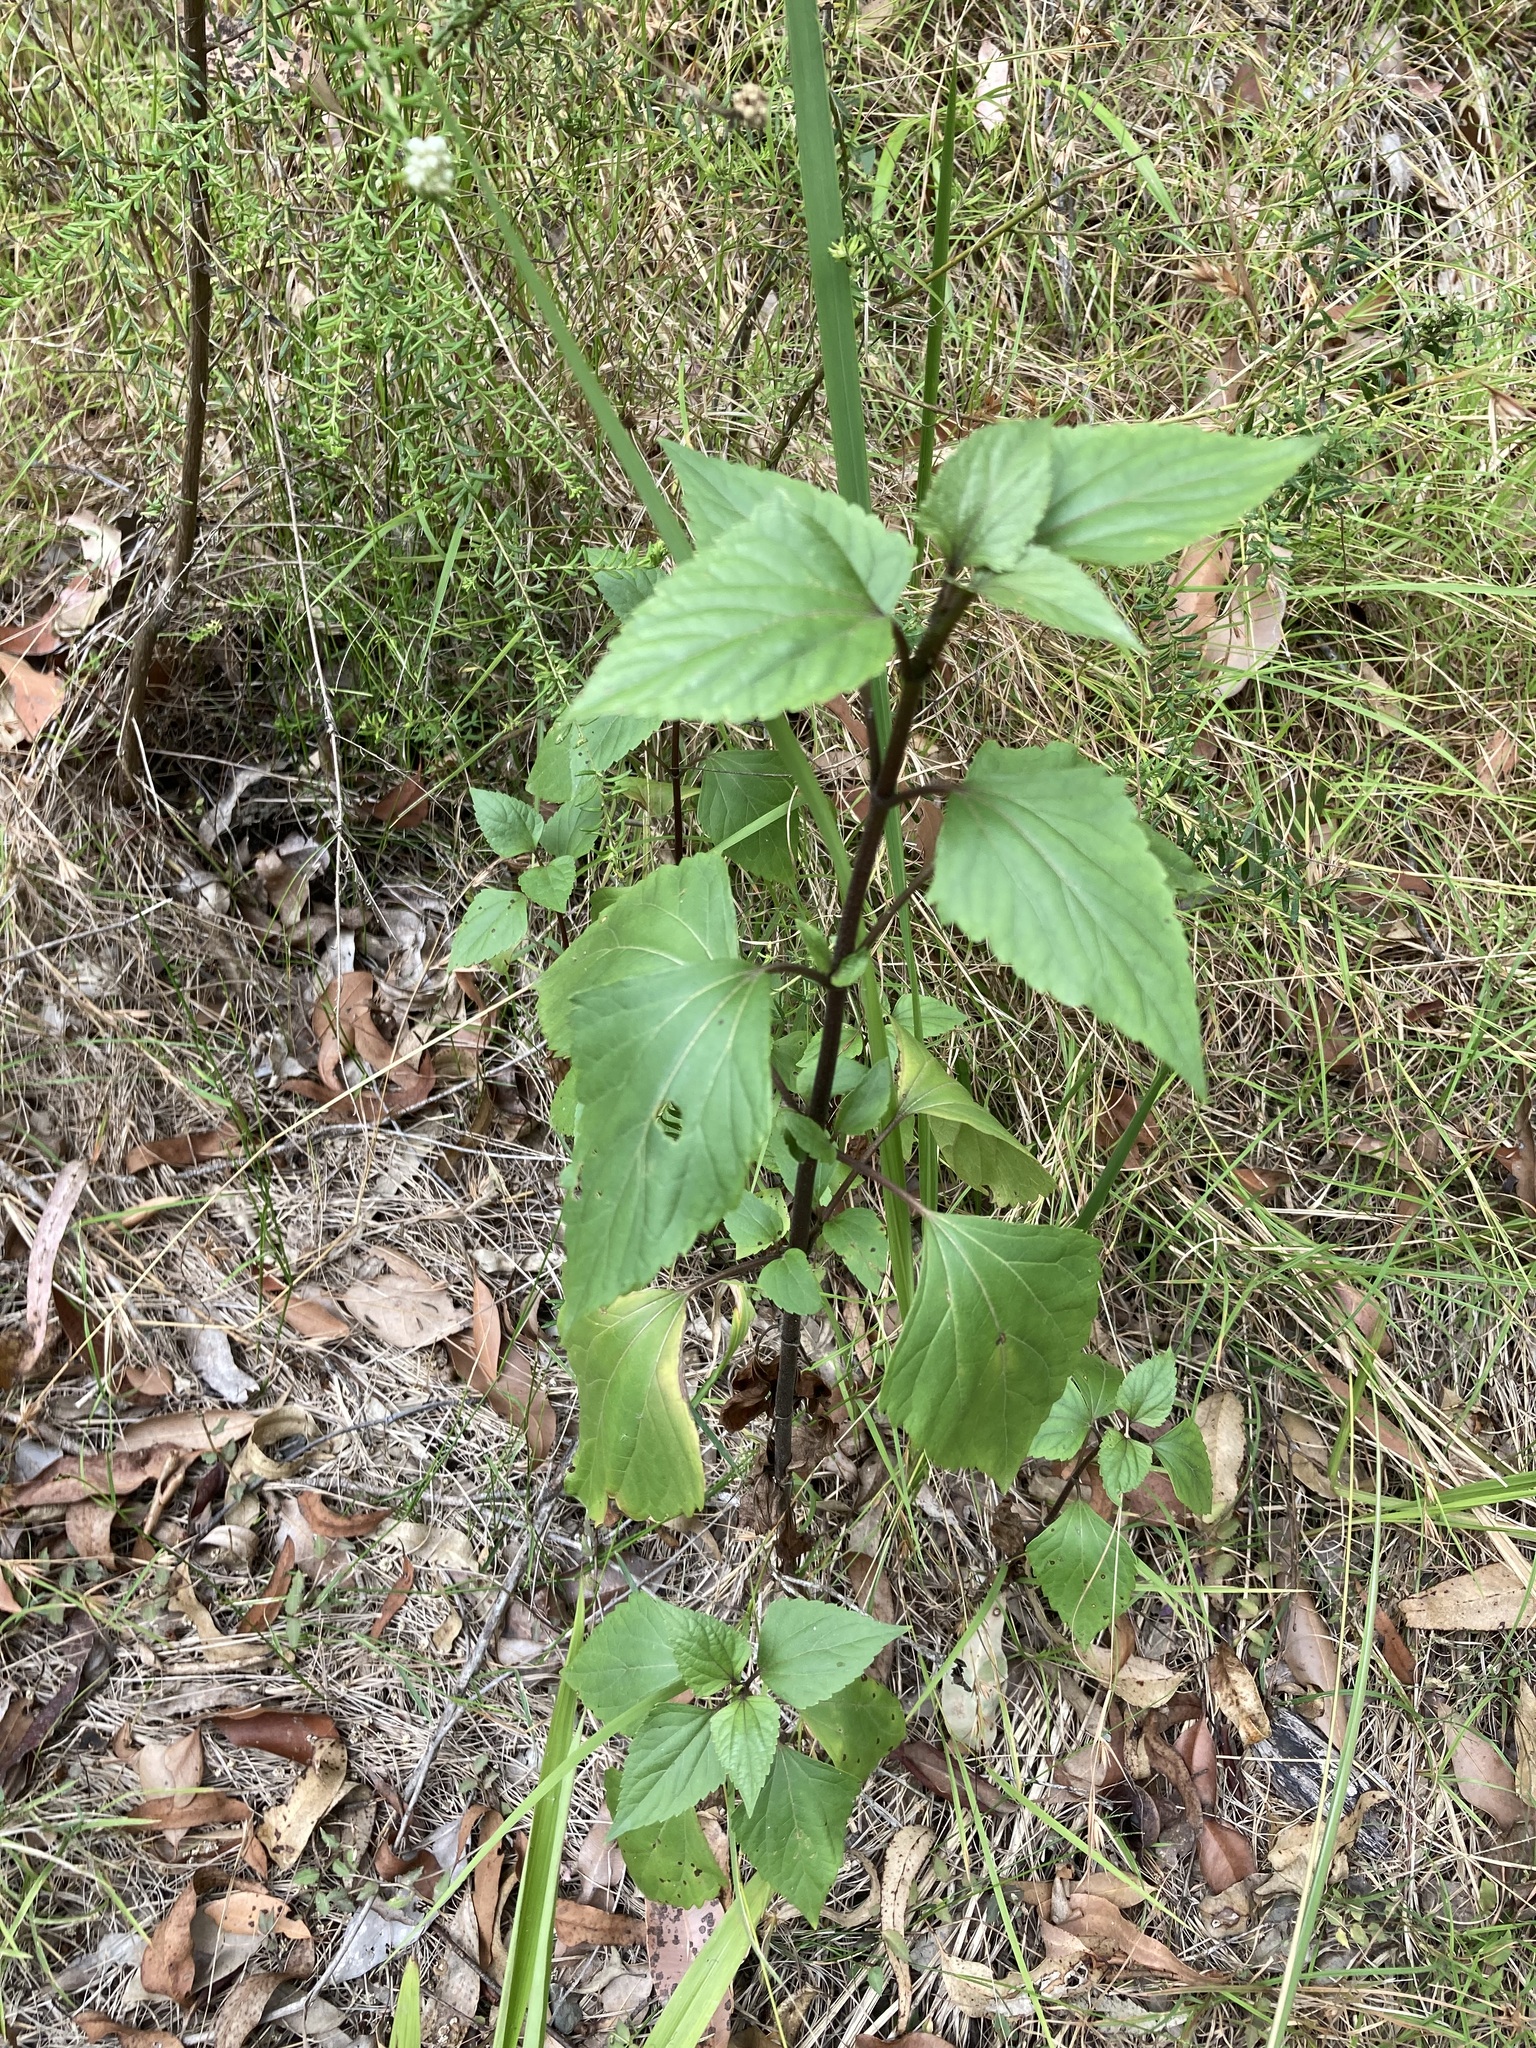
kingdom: Plantae
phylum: Tracheophyta
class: Magnoliopsida
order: Asterales
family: Asteraceae
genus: Ageratina
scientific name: Ageratina adenophora
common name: Sticky snakeroot
